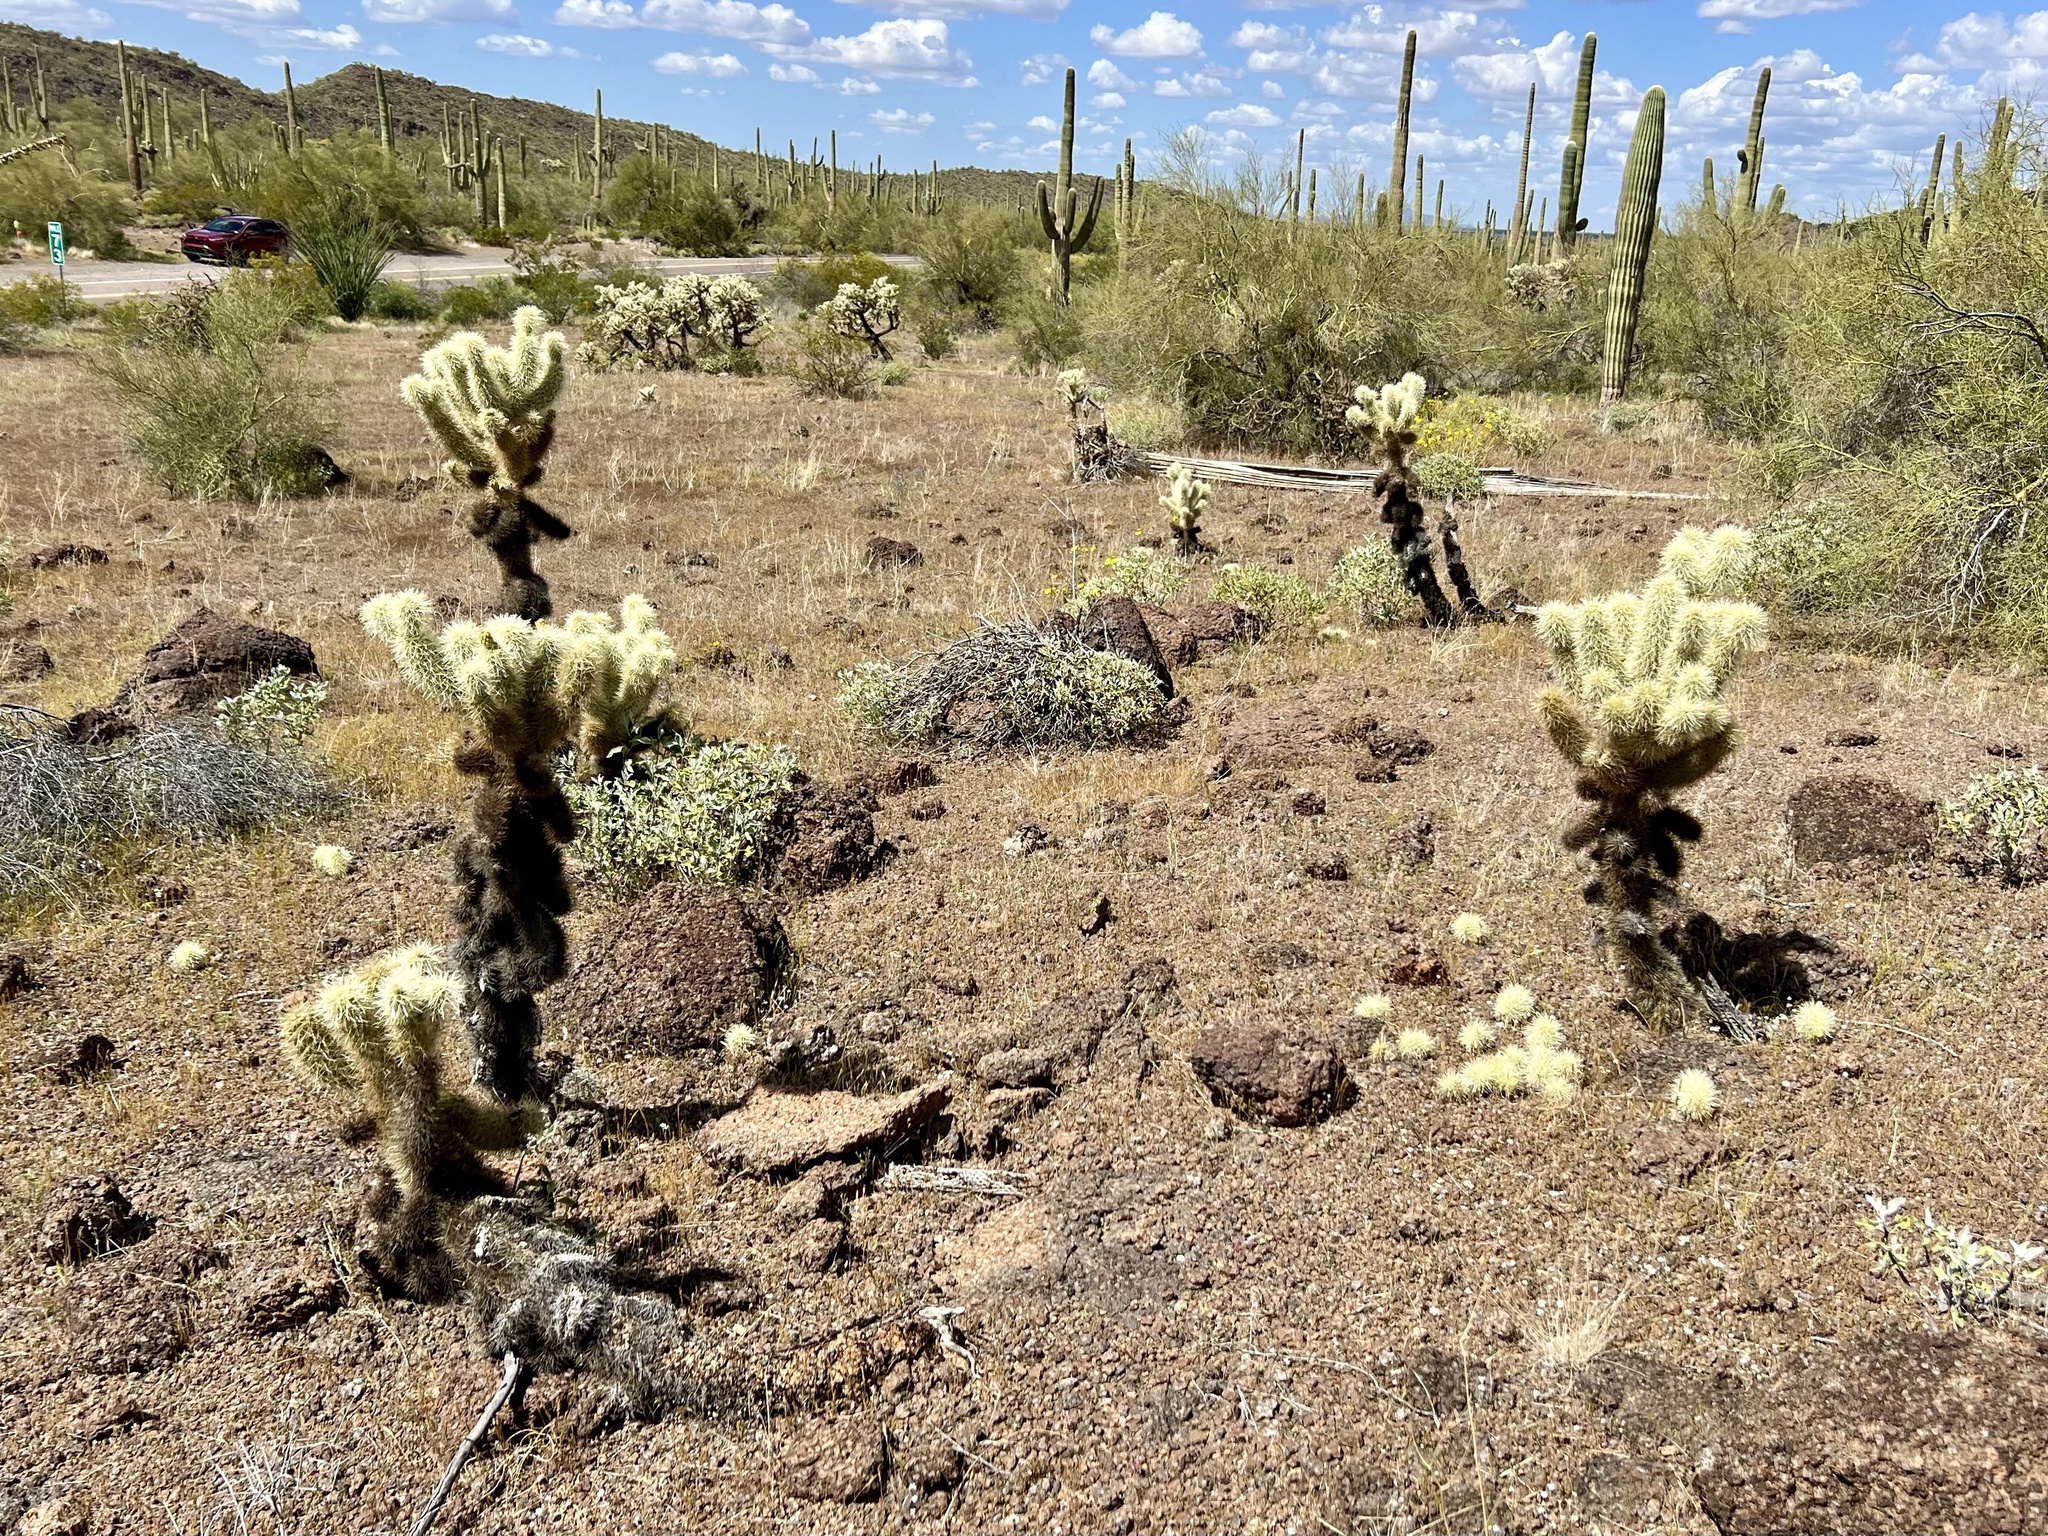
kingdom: Plantae
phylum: Tracheophyta
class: Magnoliopsida
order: Caryophyllales
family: Cactaceae
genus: Cylindropuntia
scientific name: Cylindropuntia fosbergii
